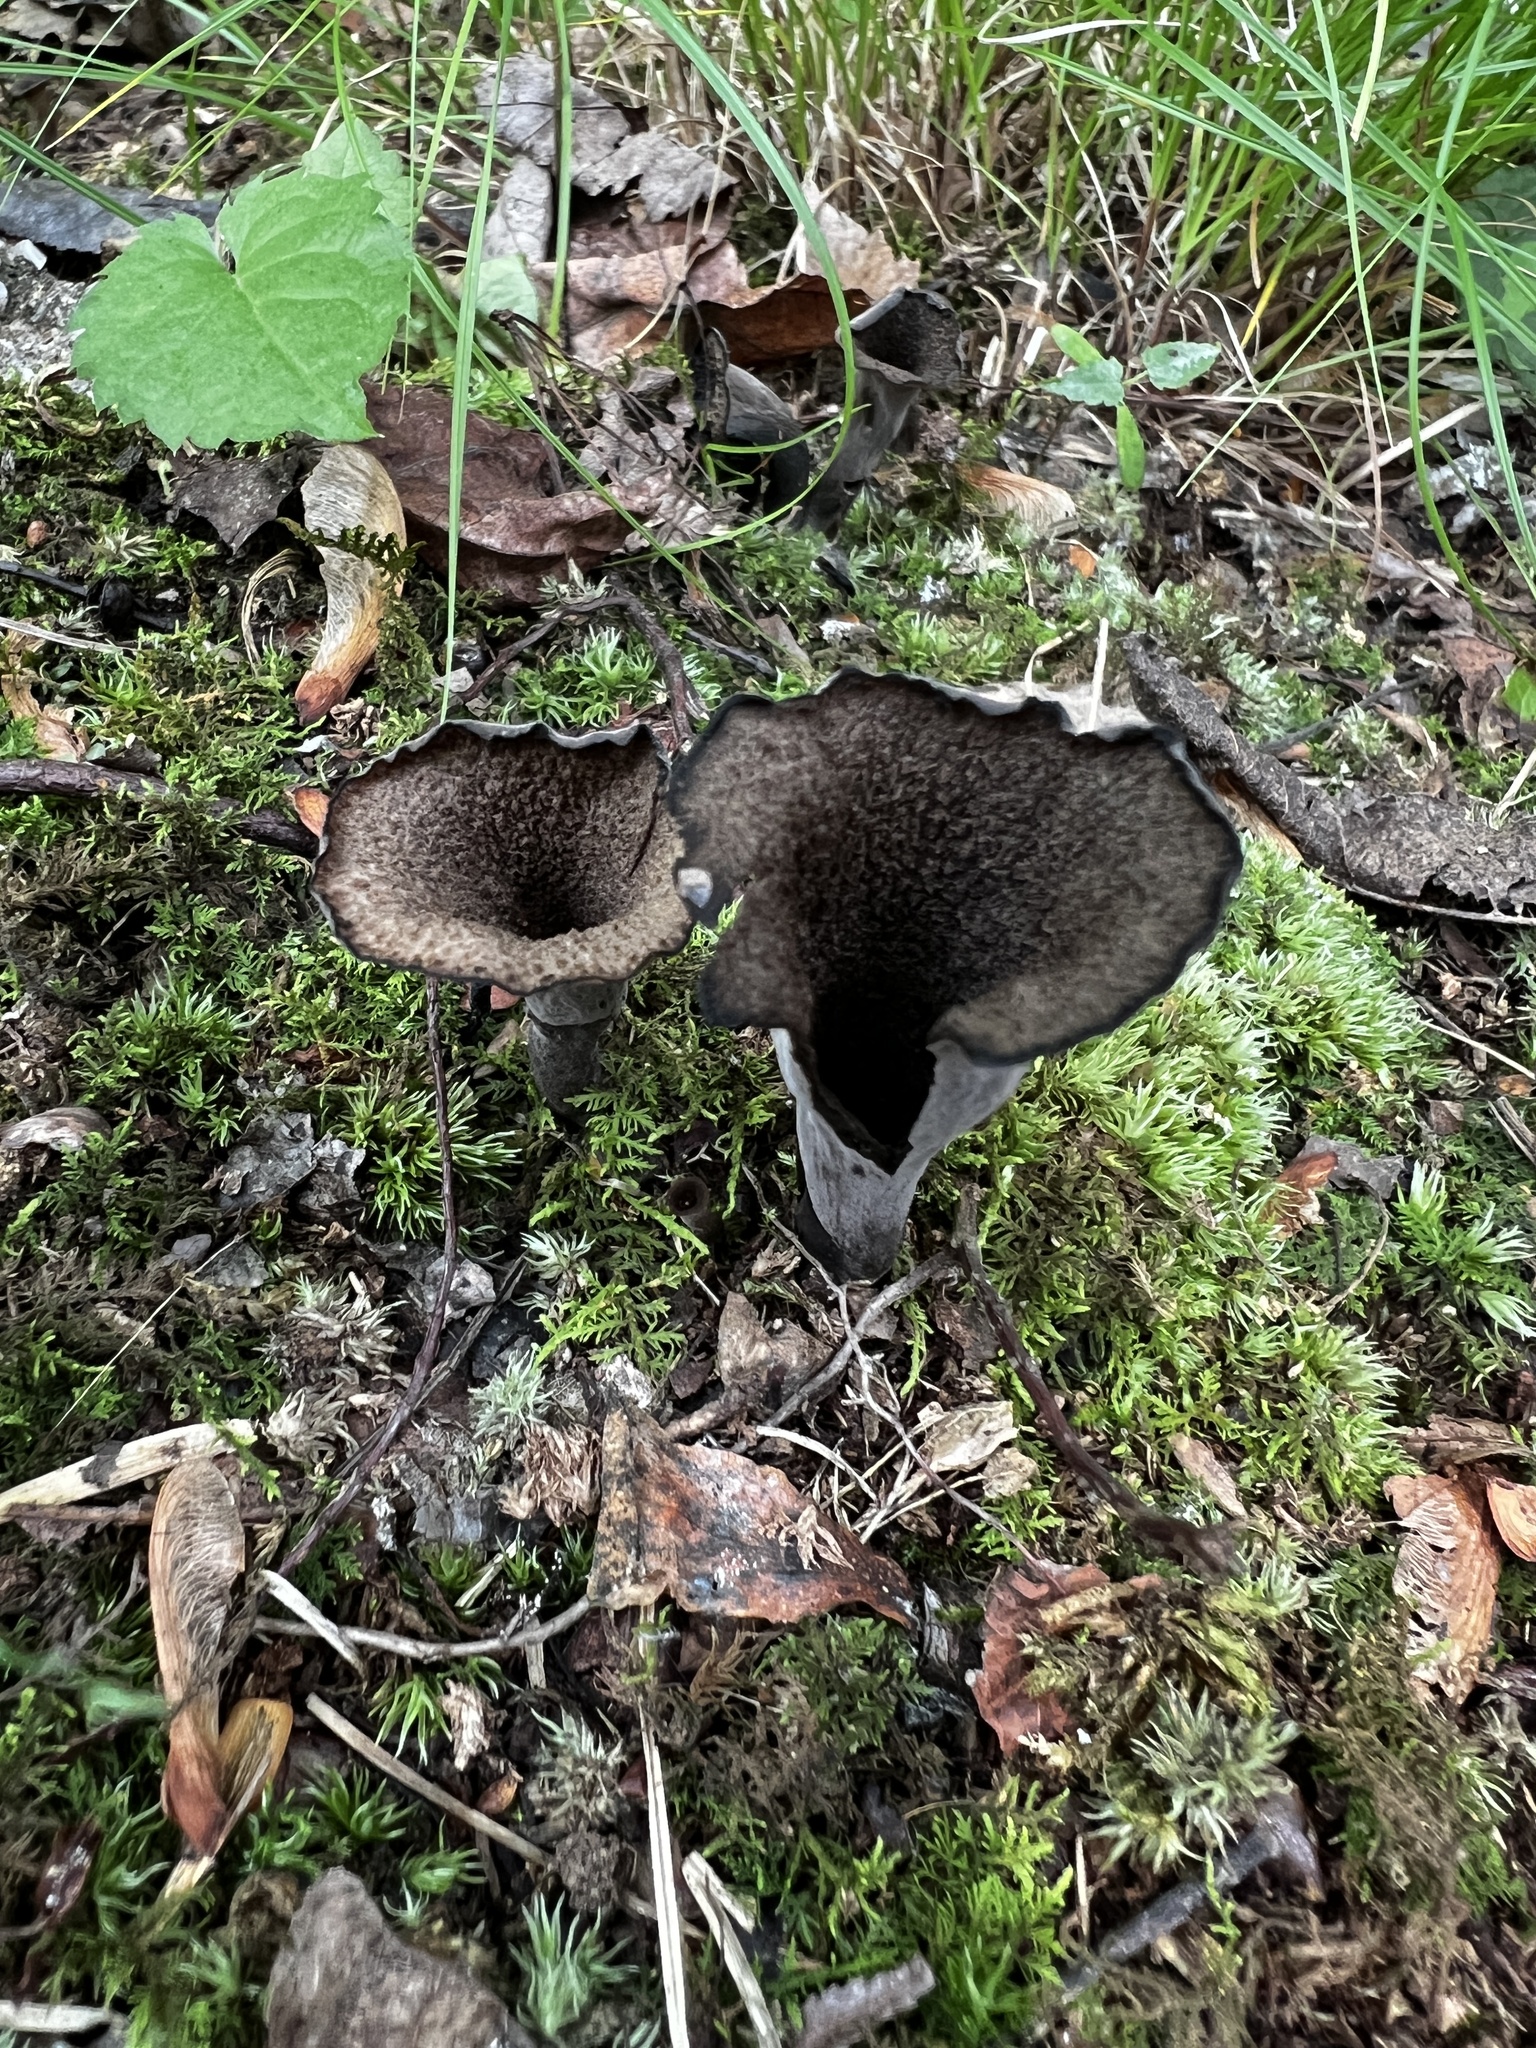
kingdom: Fungi
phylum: Basidiomycota
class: Agaricomycetes
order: Cantharellales
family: Hydnaceae
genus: Craterellus
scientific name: Craterellus cornucopioides
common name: Horn of plenty
